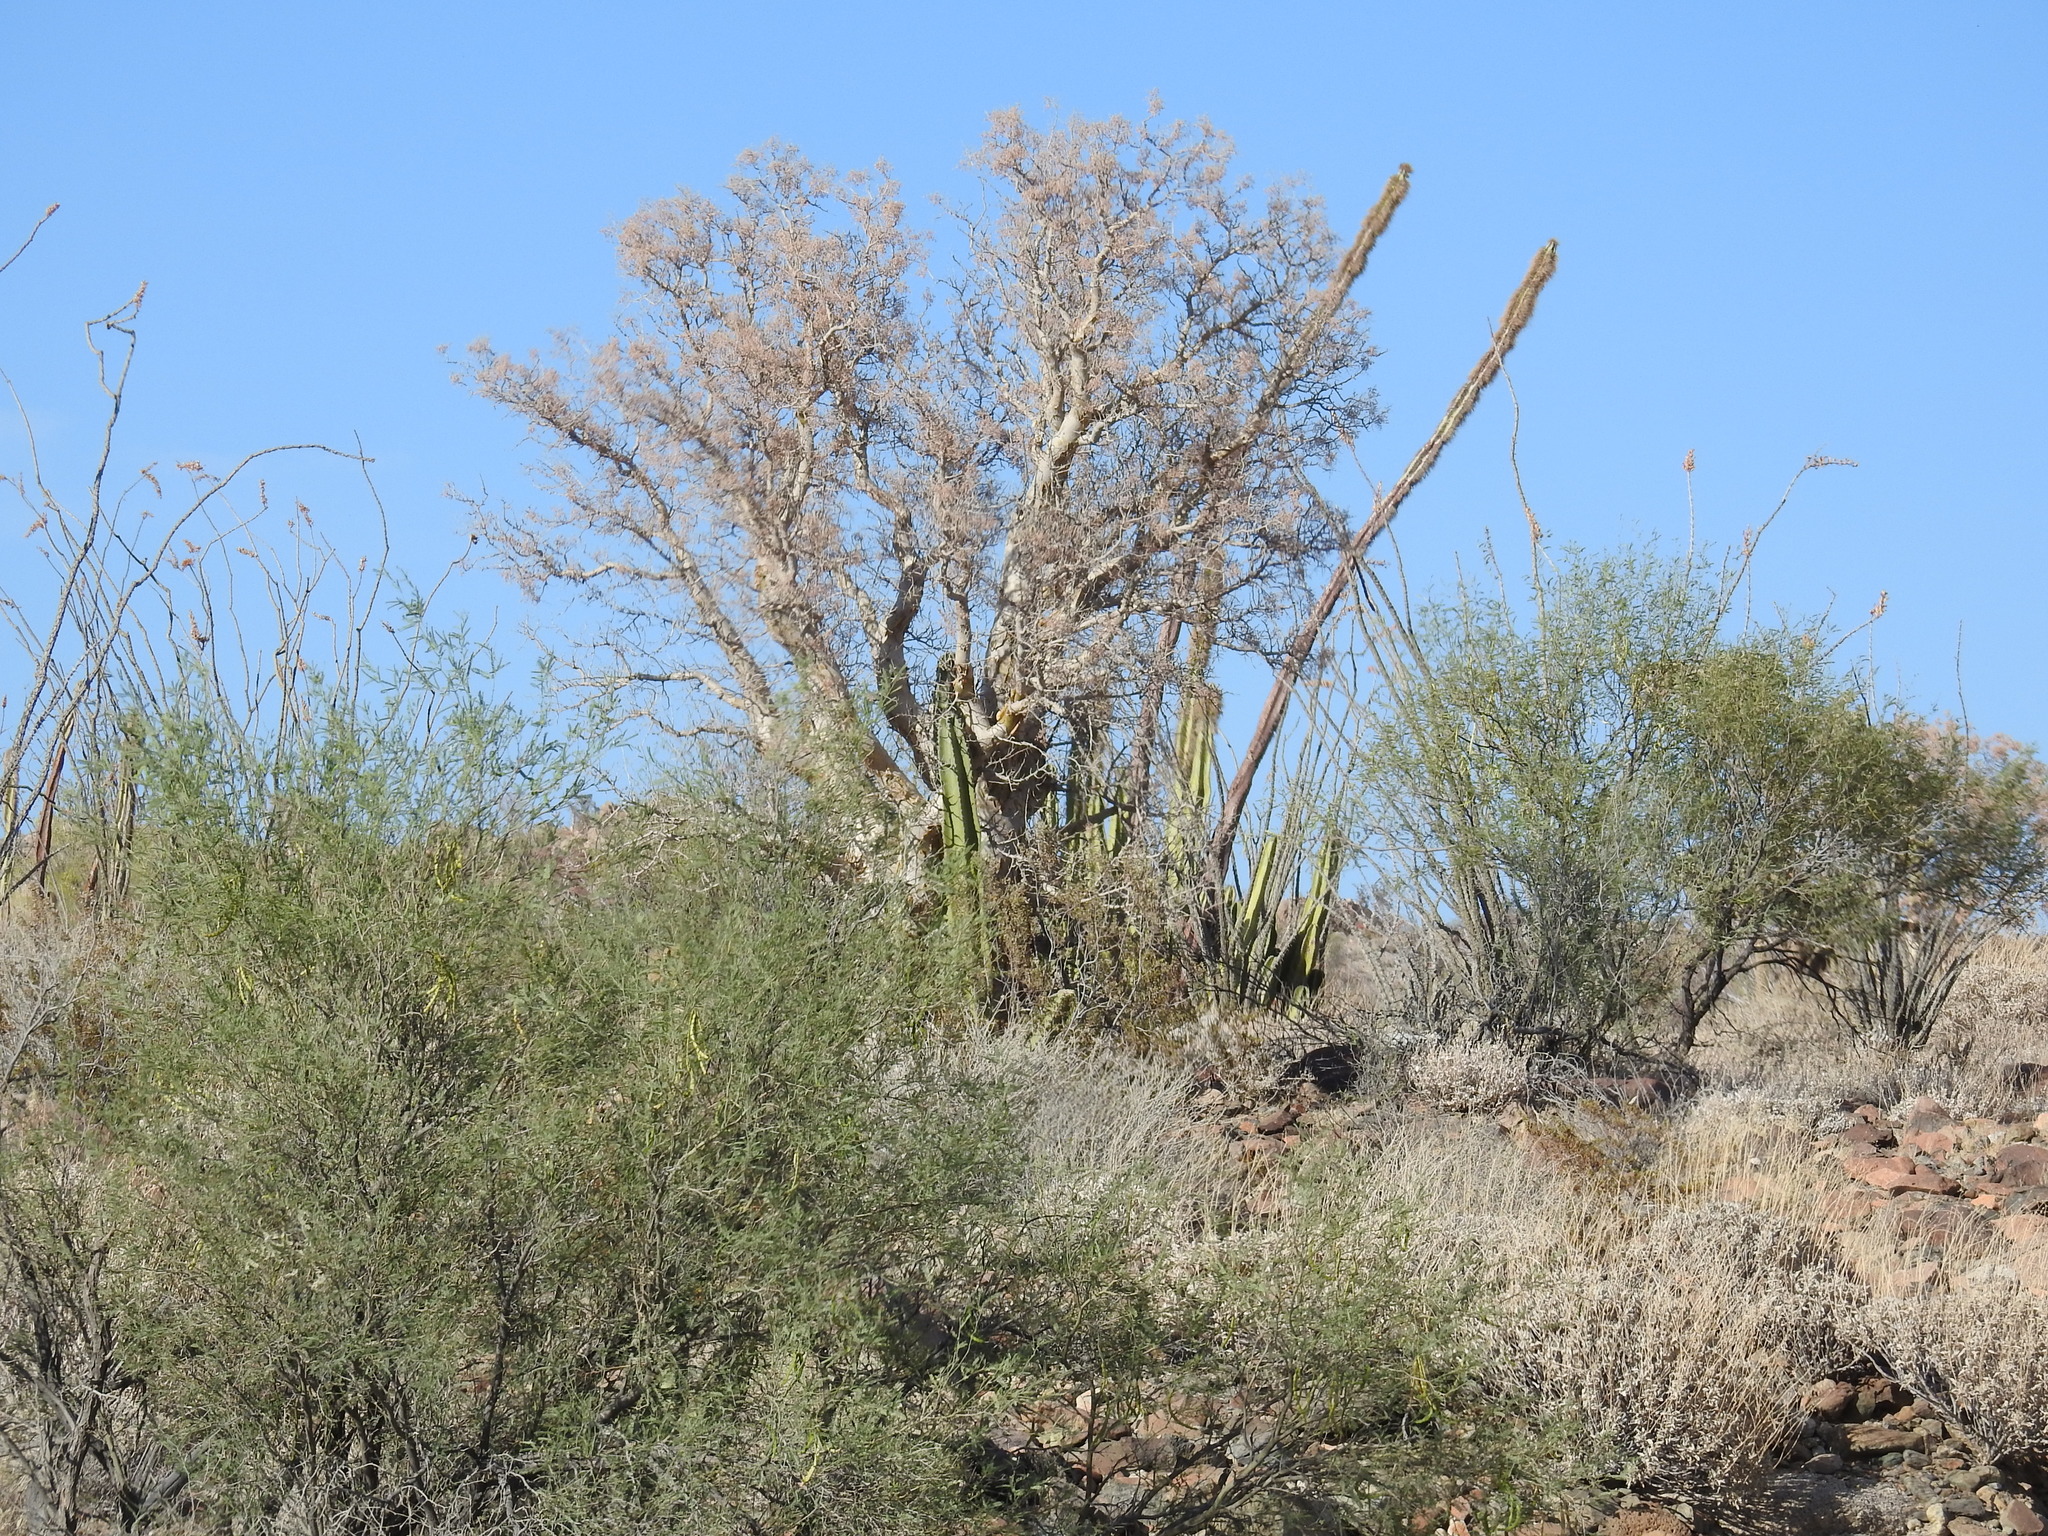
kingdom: Plantae
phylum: Tracheophyta
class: Magnoliopsida
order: Sapindales
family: Anacardiaceae
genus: Pachycormus
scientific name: Pachycormus discolor
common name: Succulent elephant trees
